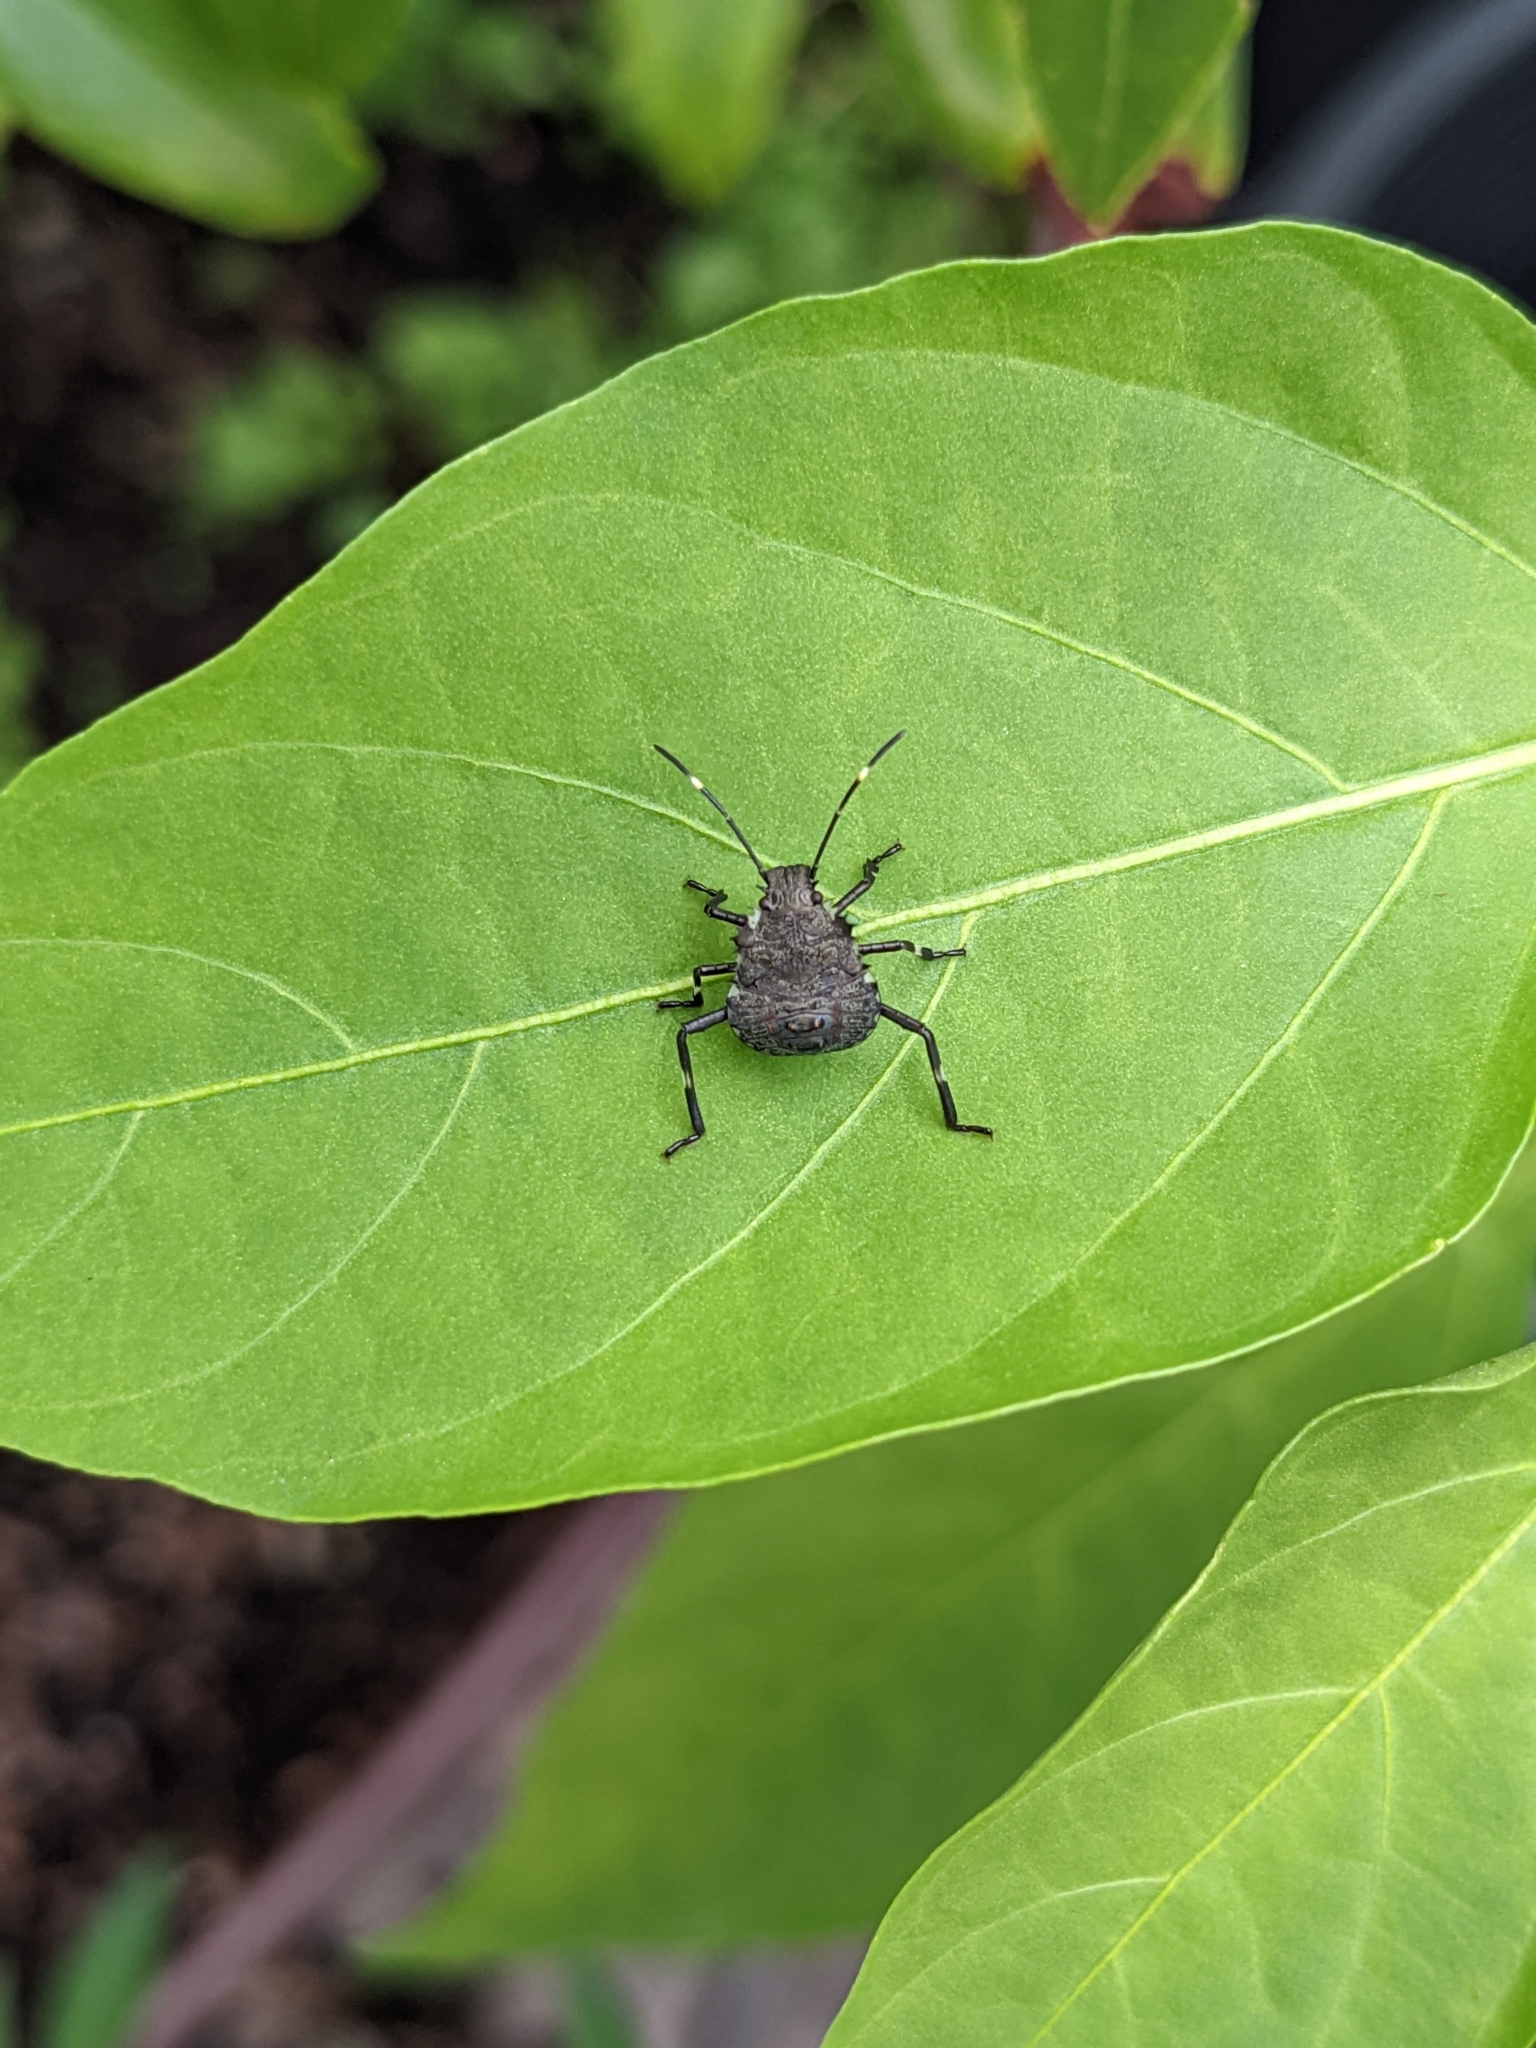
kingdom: Animalia
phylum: Arthropoda
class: Insecta
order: Hemiptera
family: Pentatomidae
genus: Halyomorpha
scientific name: Halyomorpha halys
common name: Brown marmorated stink bug
